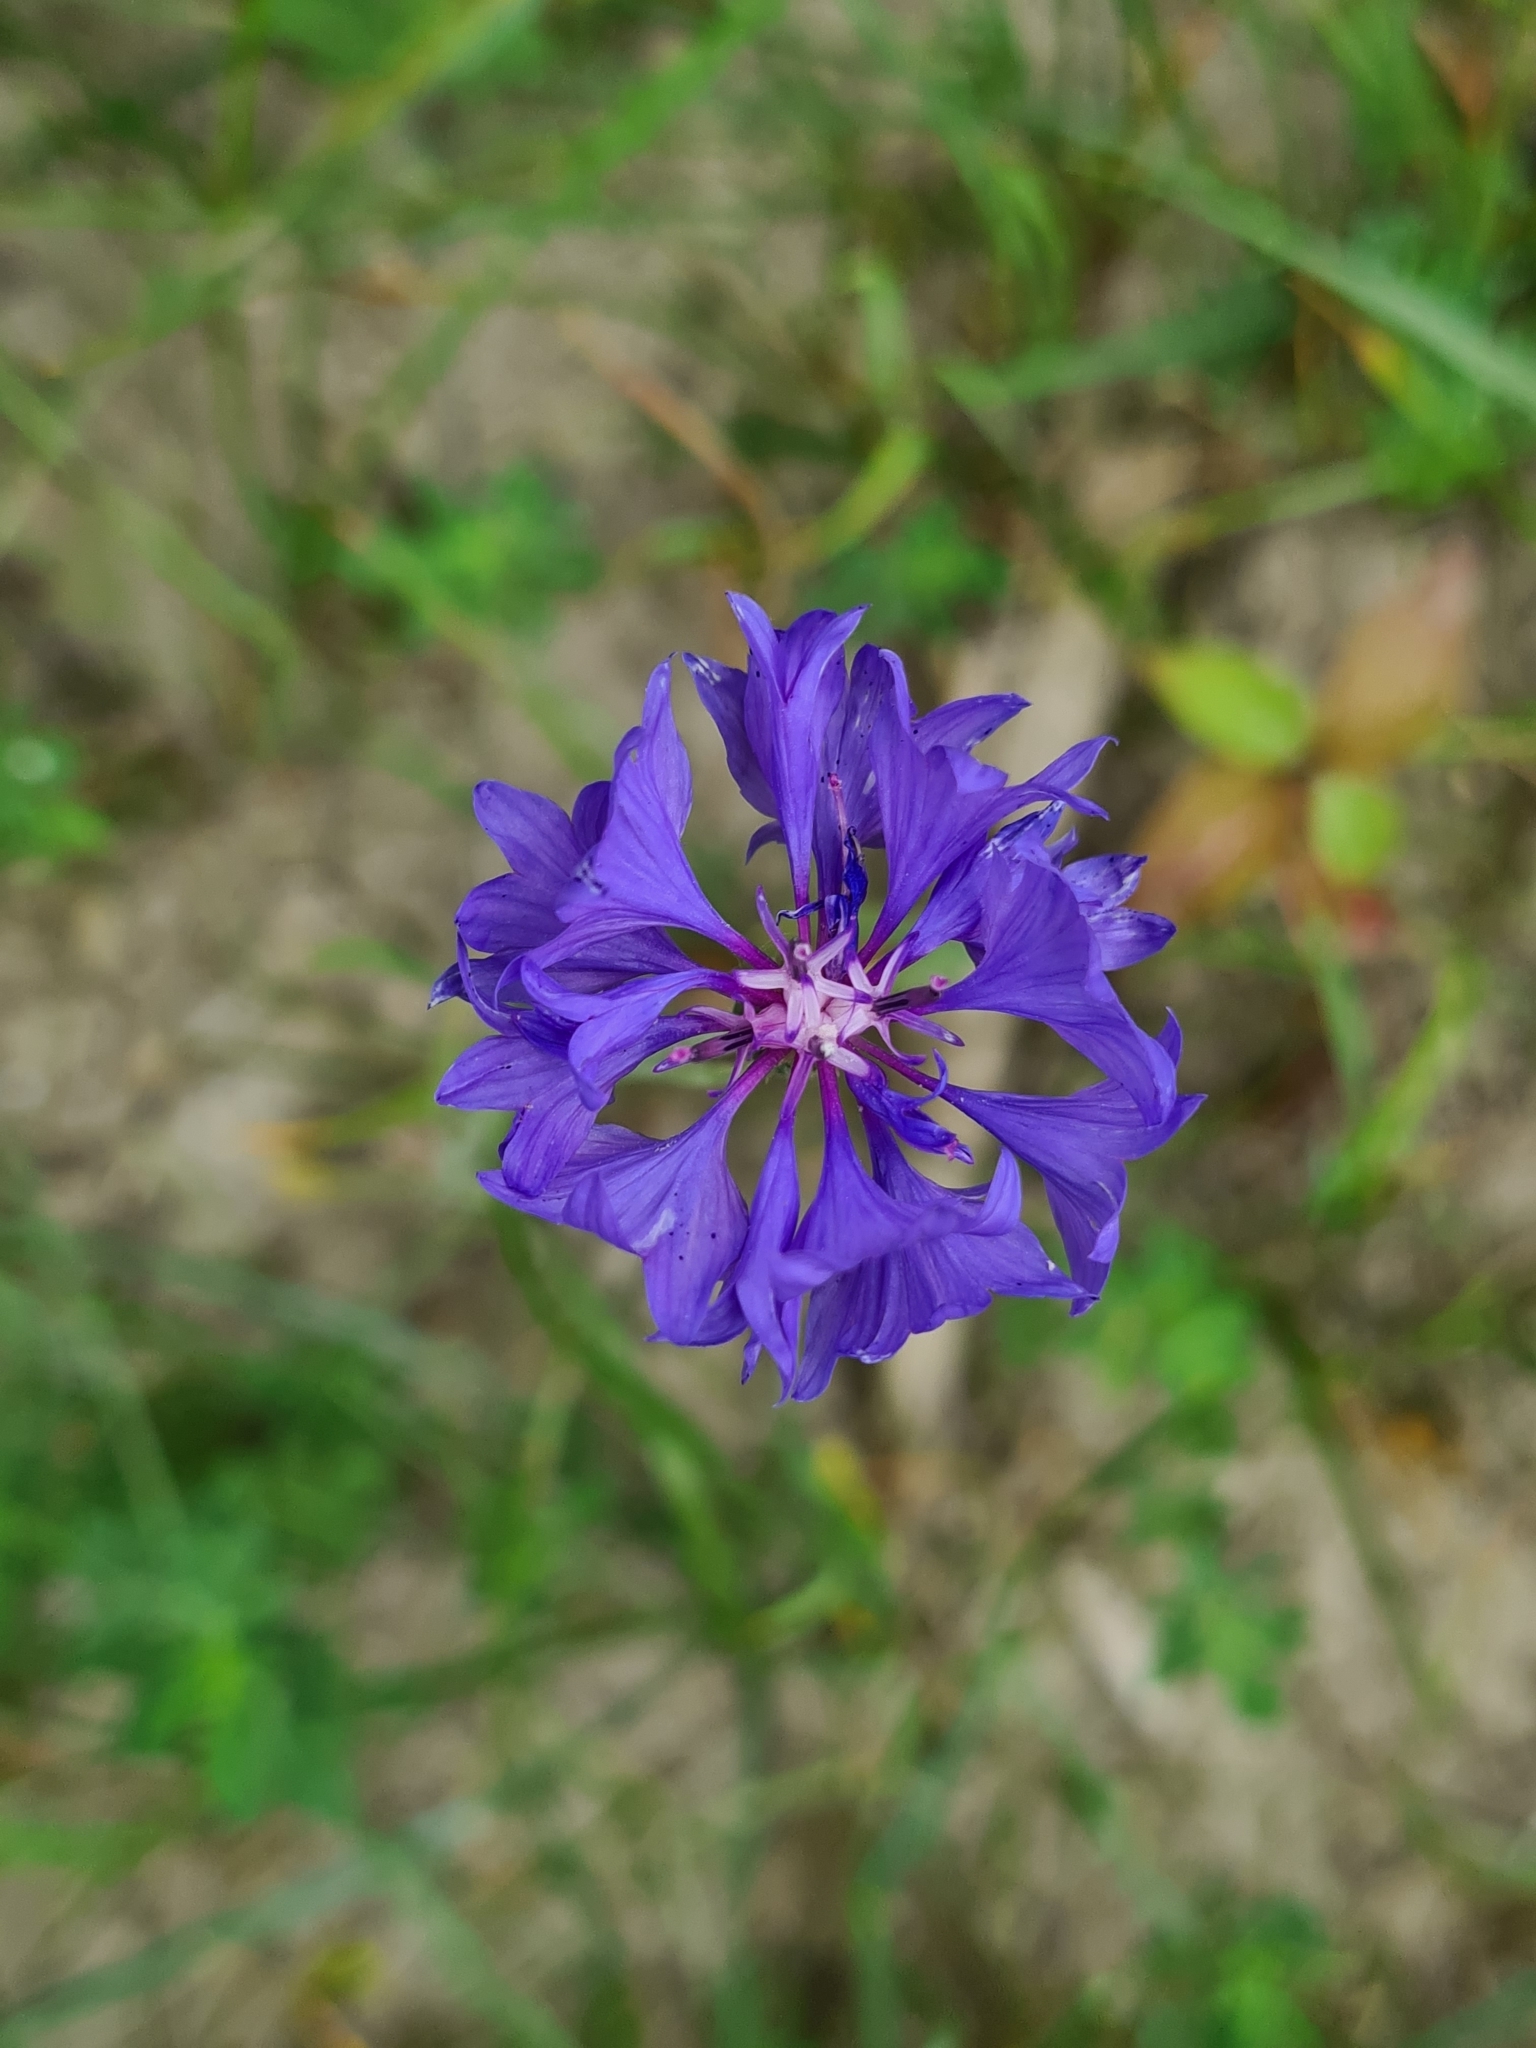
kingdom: Plantae
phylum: Tracheophyta
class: Magnoliopsida
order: Asterales
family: Asteraceae
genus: Centaurea
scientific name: Centaurea cyanus
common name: Cornflower
